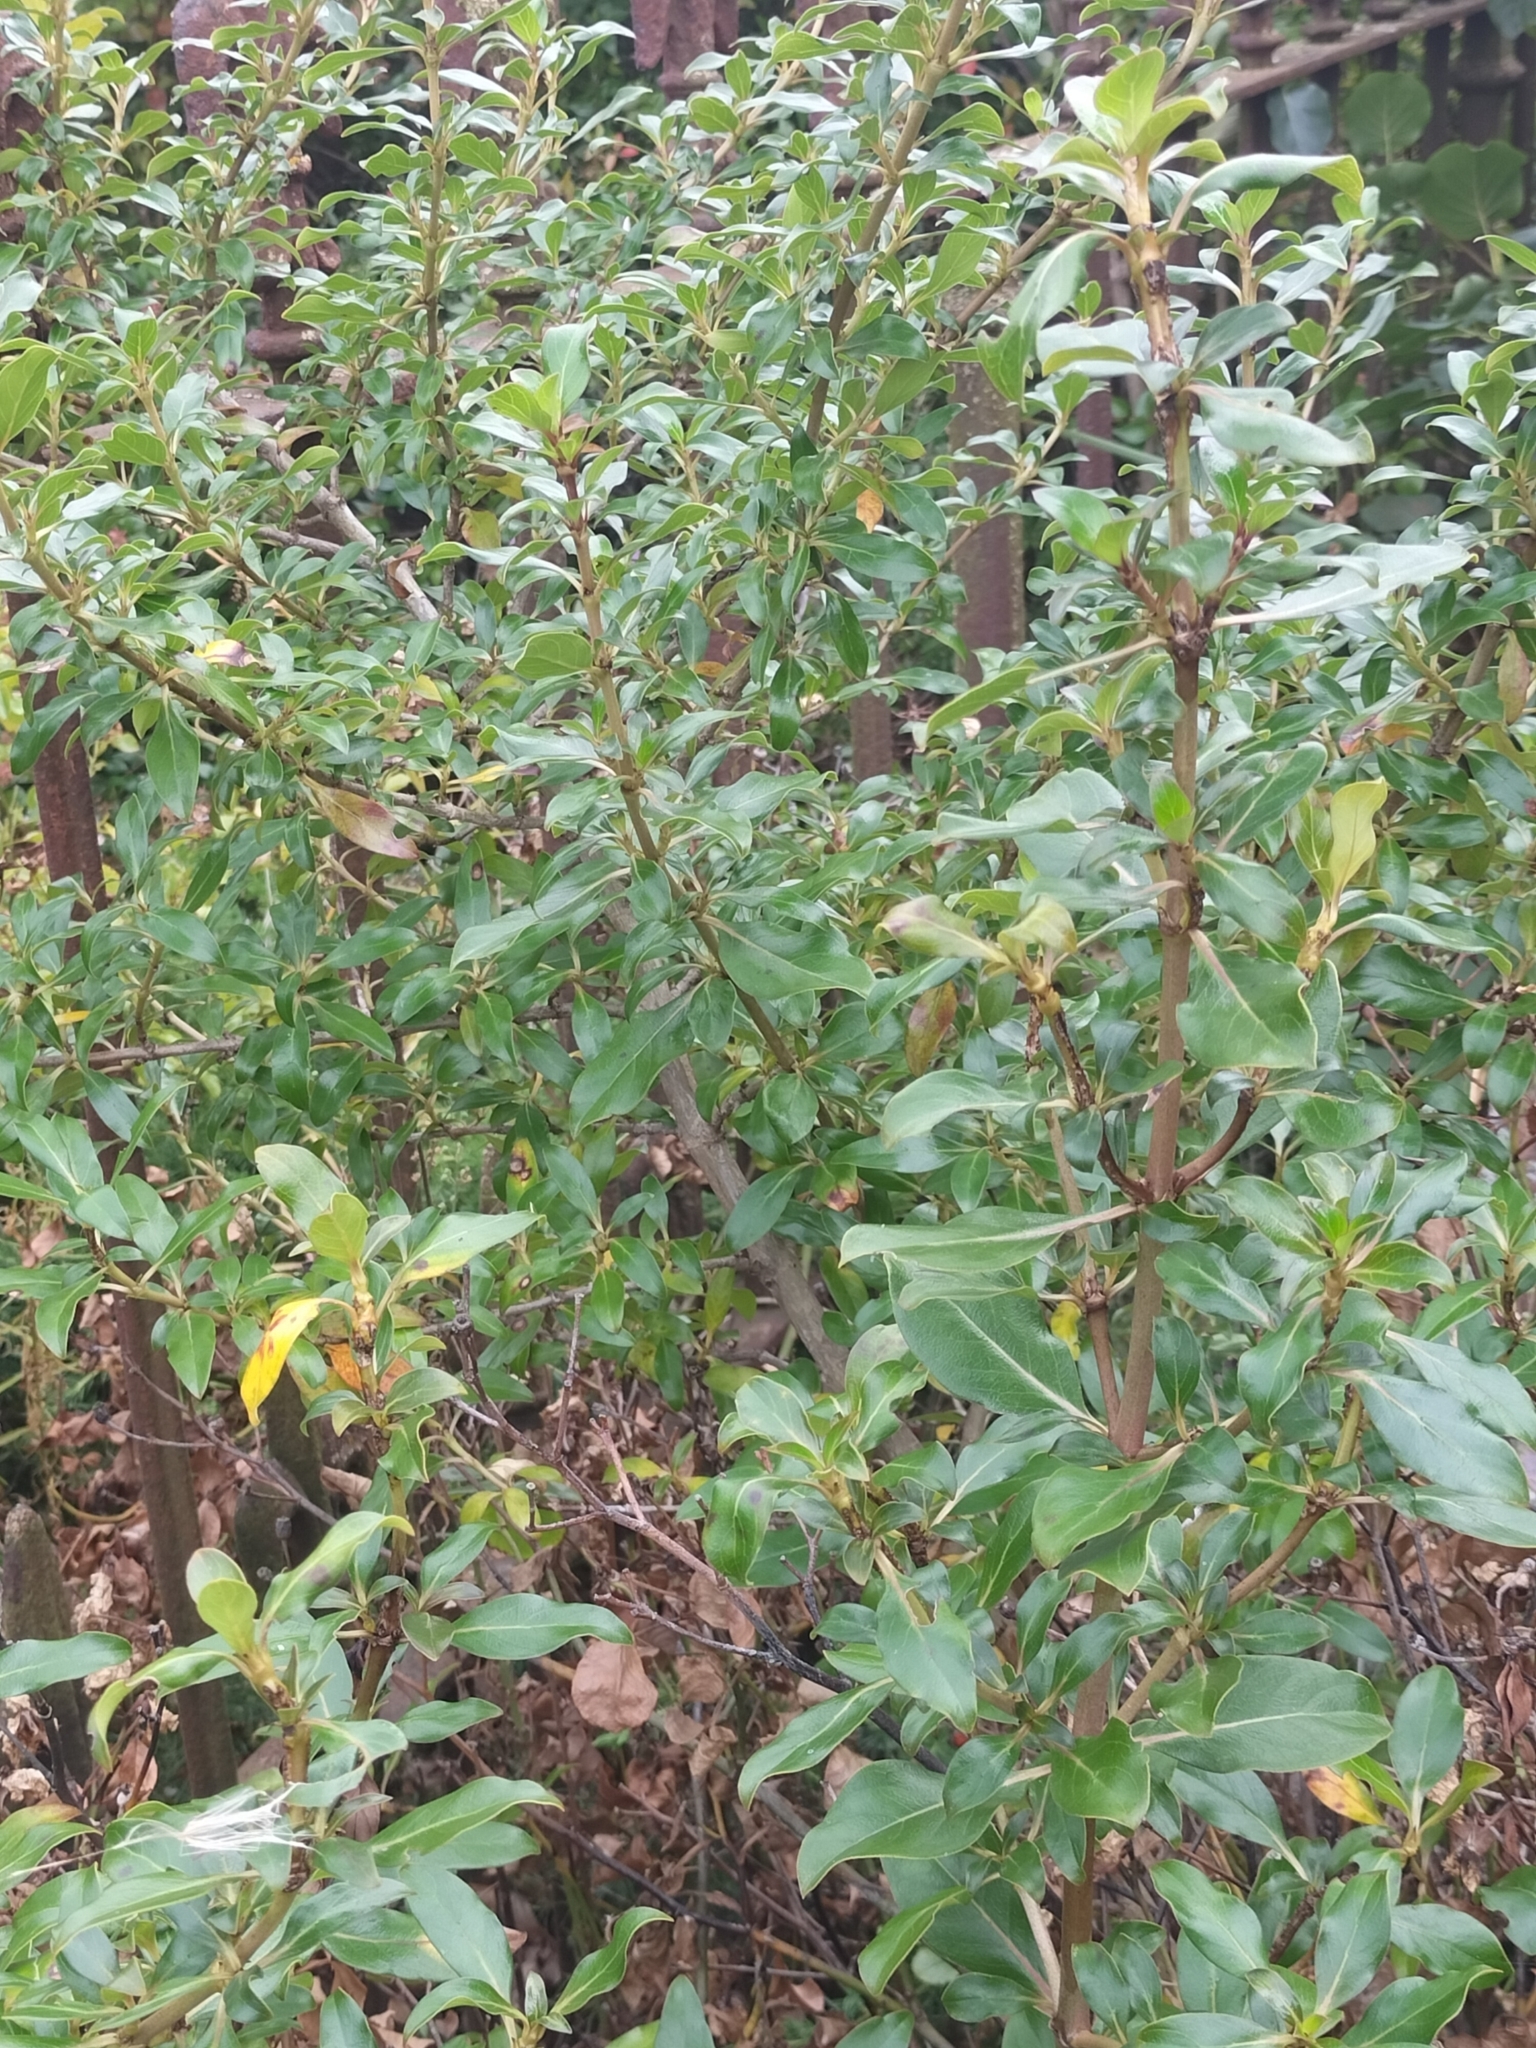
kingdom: Plantae
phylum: Tracheophyta
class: Magnoliopsida
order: Gentianales
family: Rubiaceae
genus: Coprosma
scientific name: Coprosma cunninghamii
